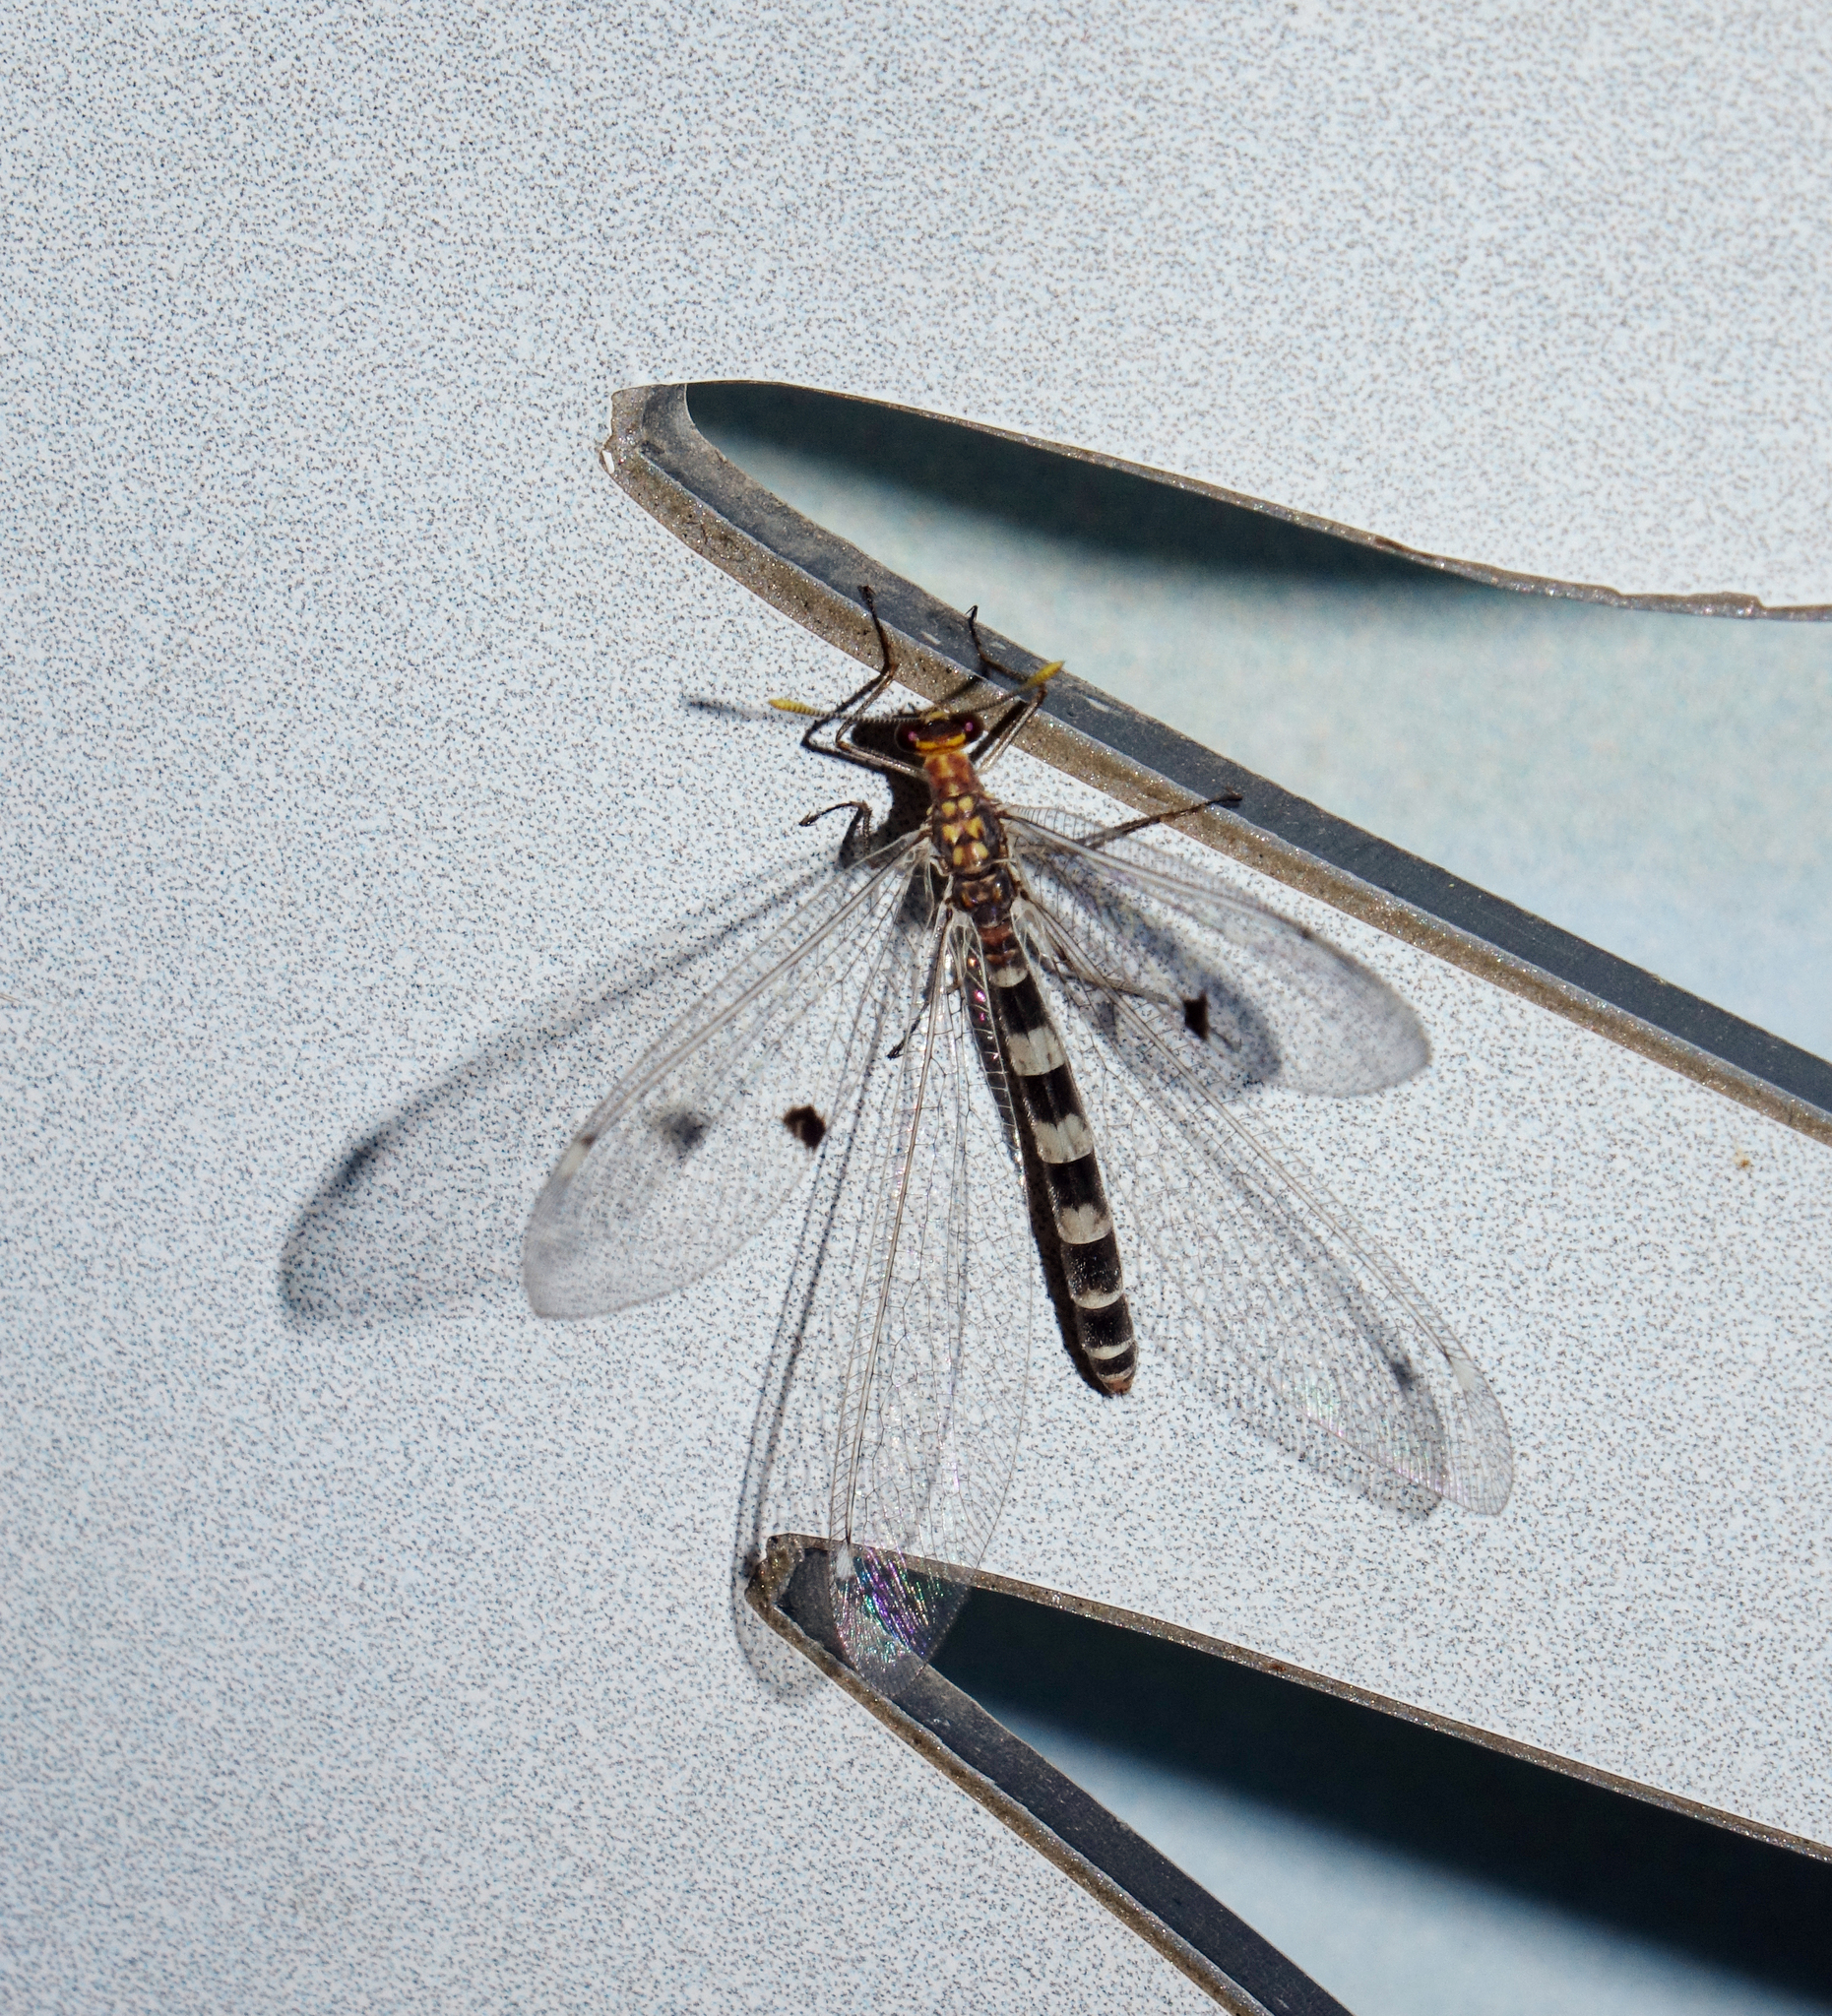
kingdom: Animalia
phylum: Arthropoda
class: Insecta
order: Neuroptera
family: Myrmeleontidae
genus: Megistopus
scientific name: Megistopus flavicornis
